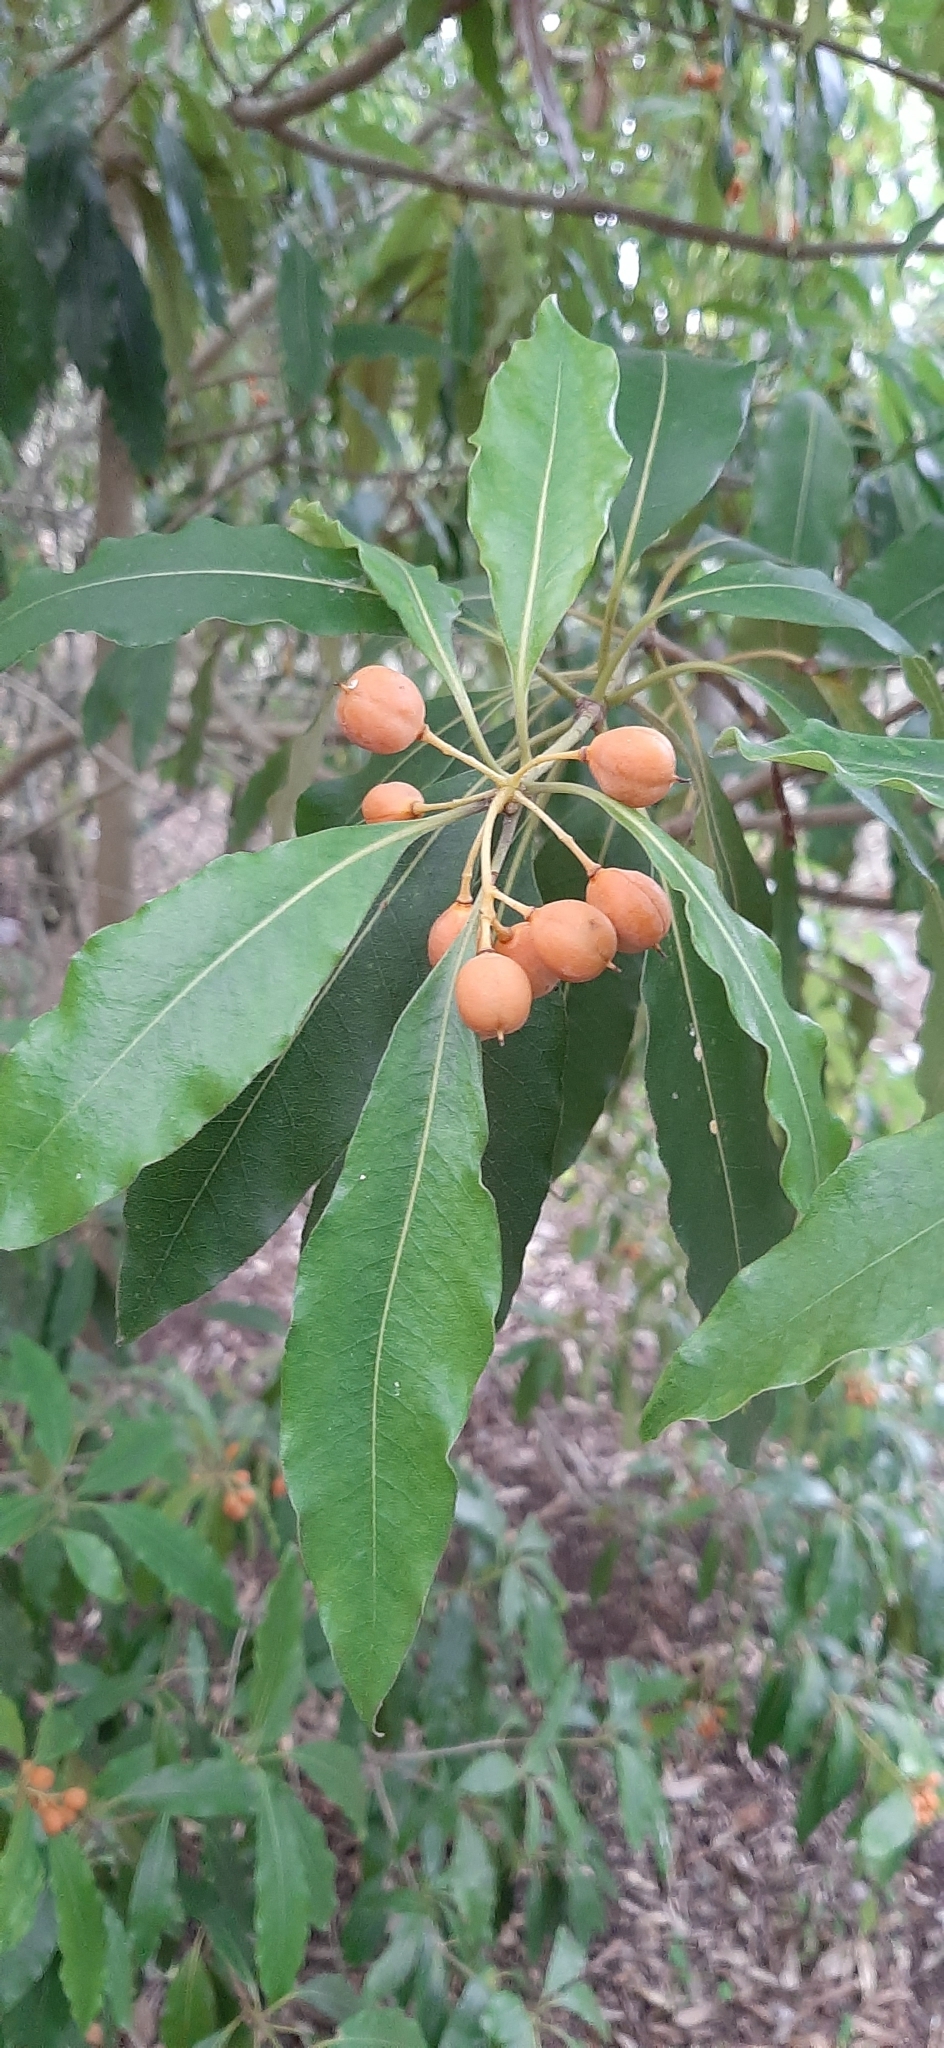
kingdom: Plantae
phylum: Tracheophyta
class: Magnoliopsida
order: Apiales
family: Pittosporaceae
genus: Pittosporum
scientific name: Pittosporum undulatum
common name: Australian cheesewood
